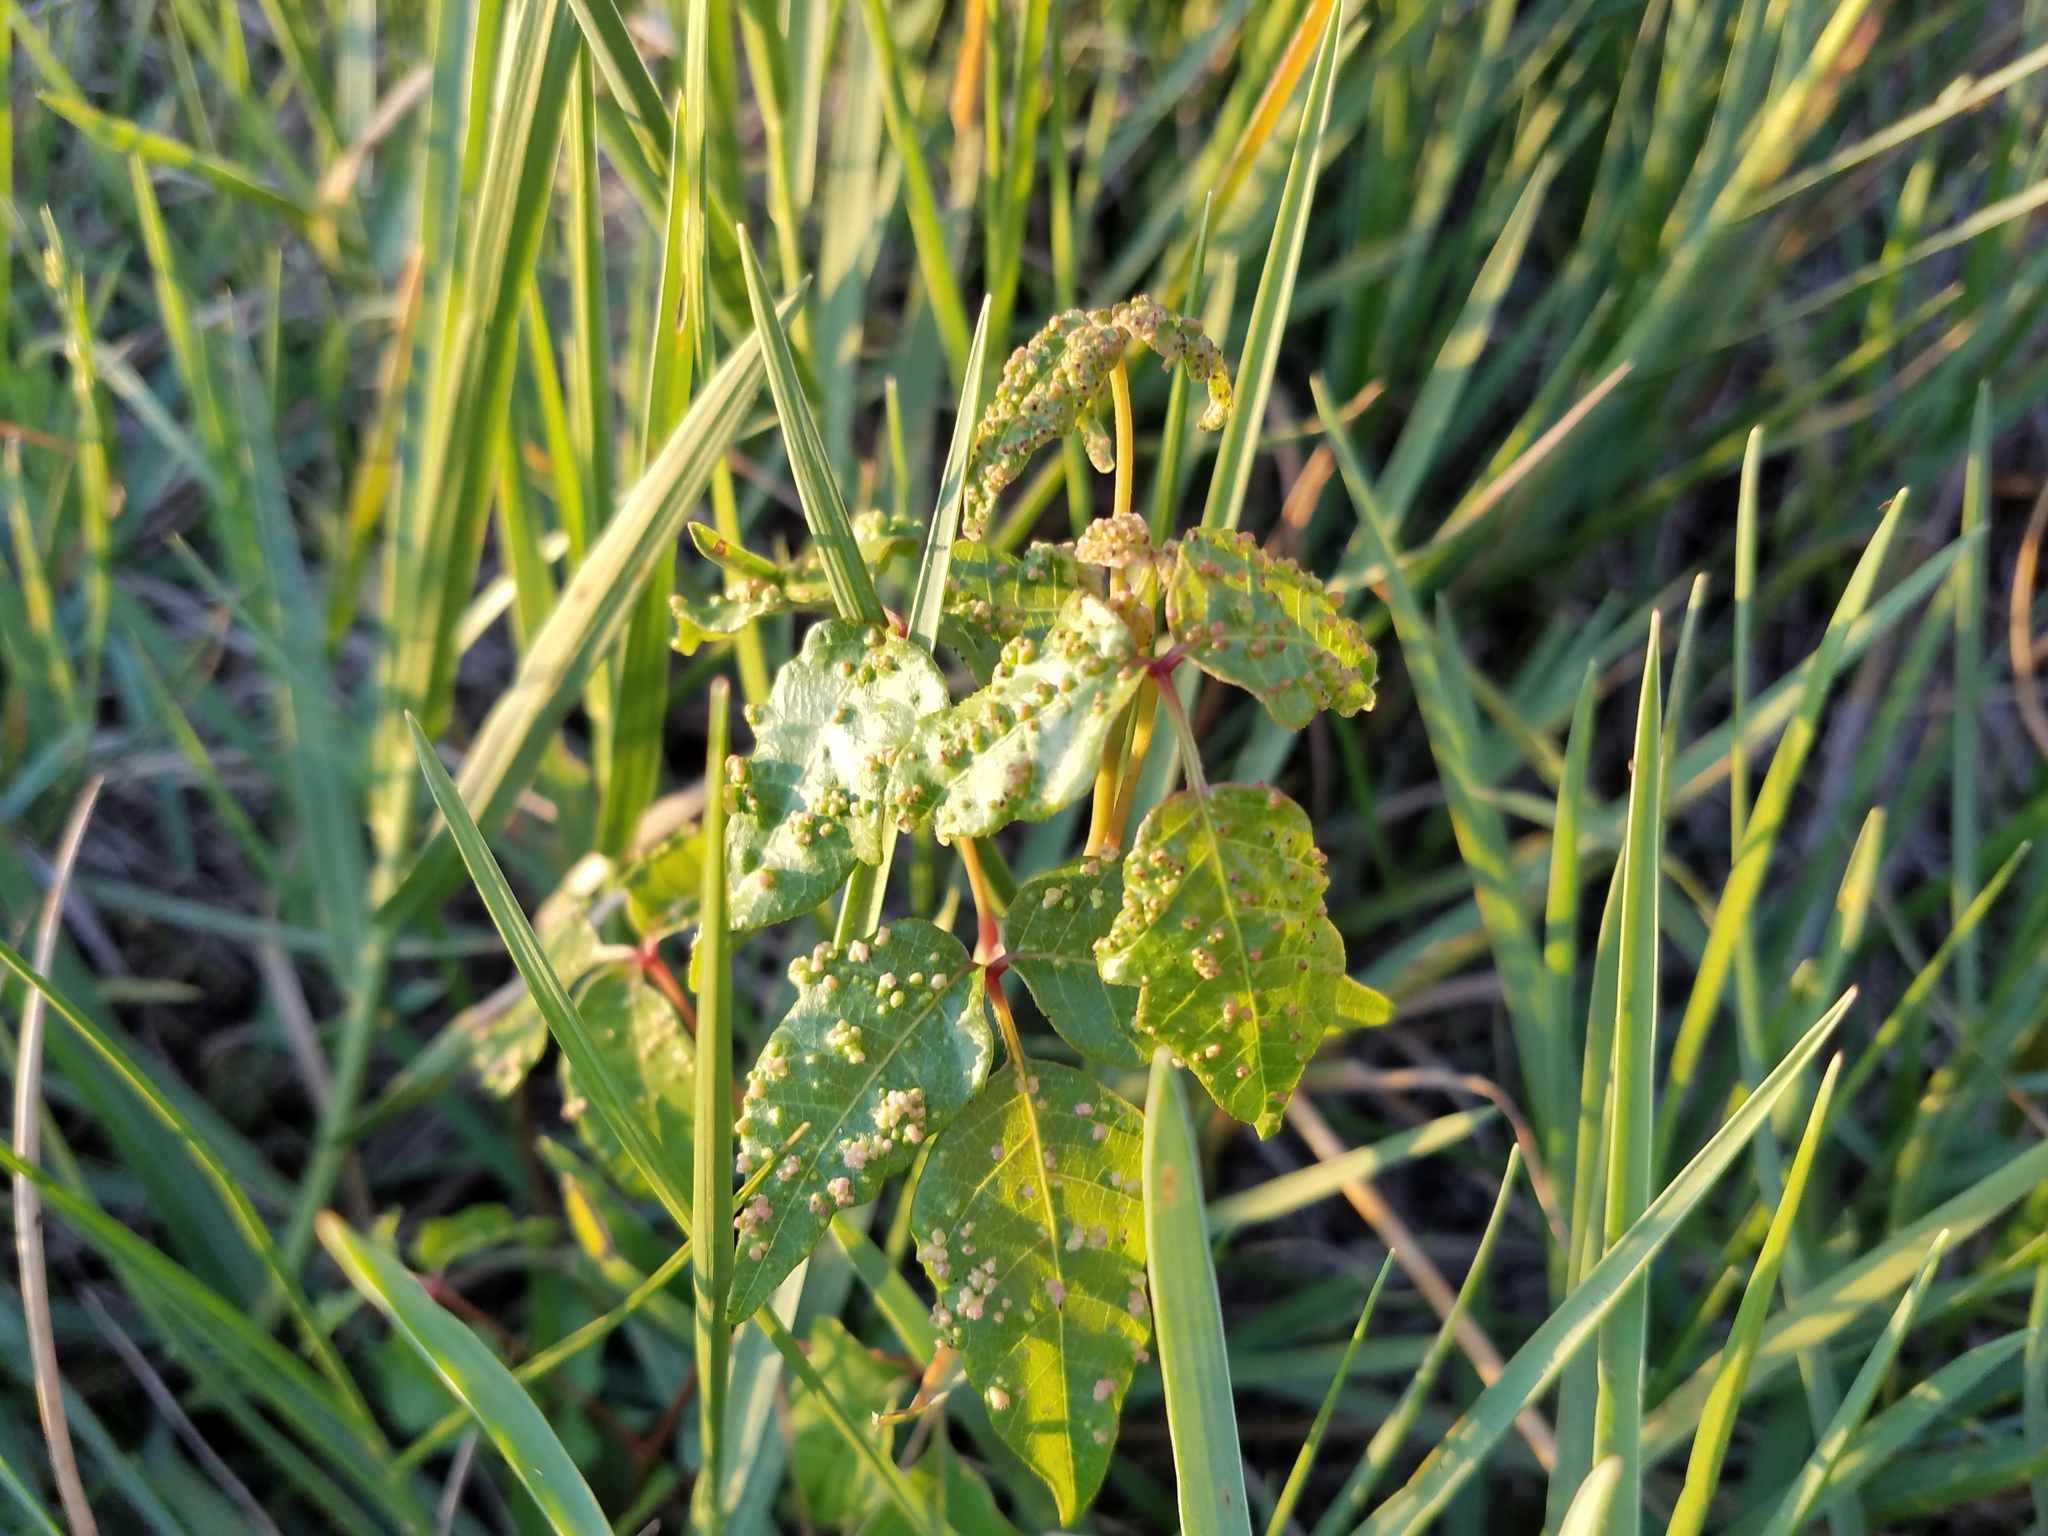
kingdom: Plantae
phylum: Tracheophyta
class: Magnoliopsida
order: Sapindales
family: Anacardiaceae
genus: Toxicodendron
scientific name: Toxicodendron radicans
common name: Poison ivy
